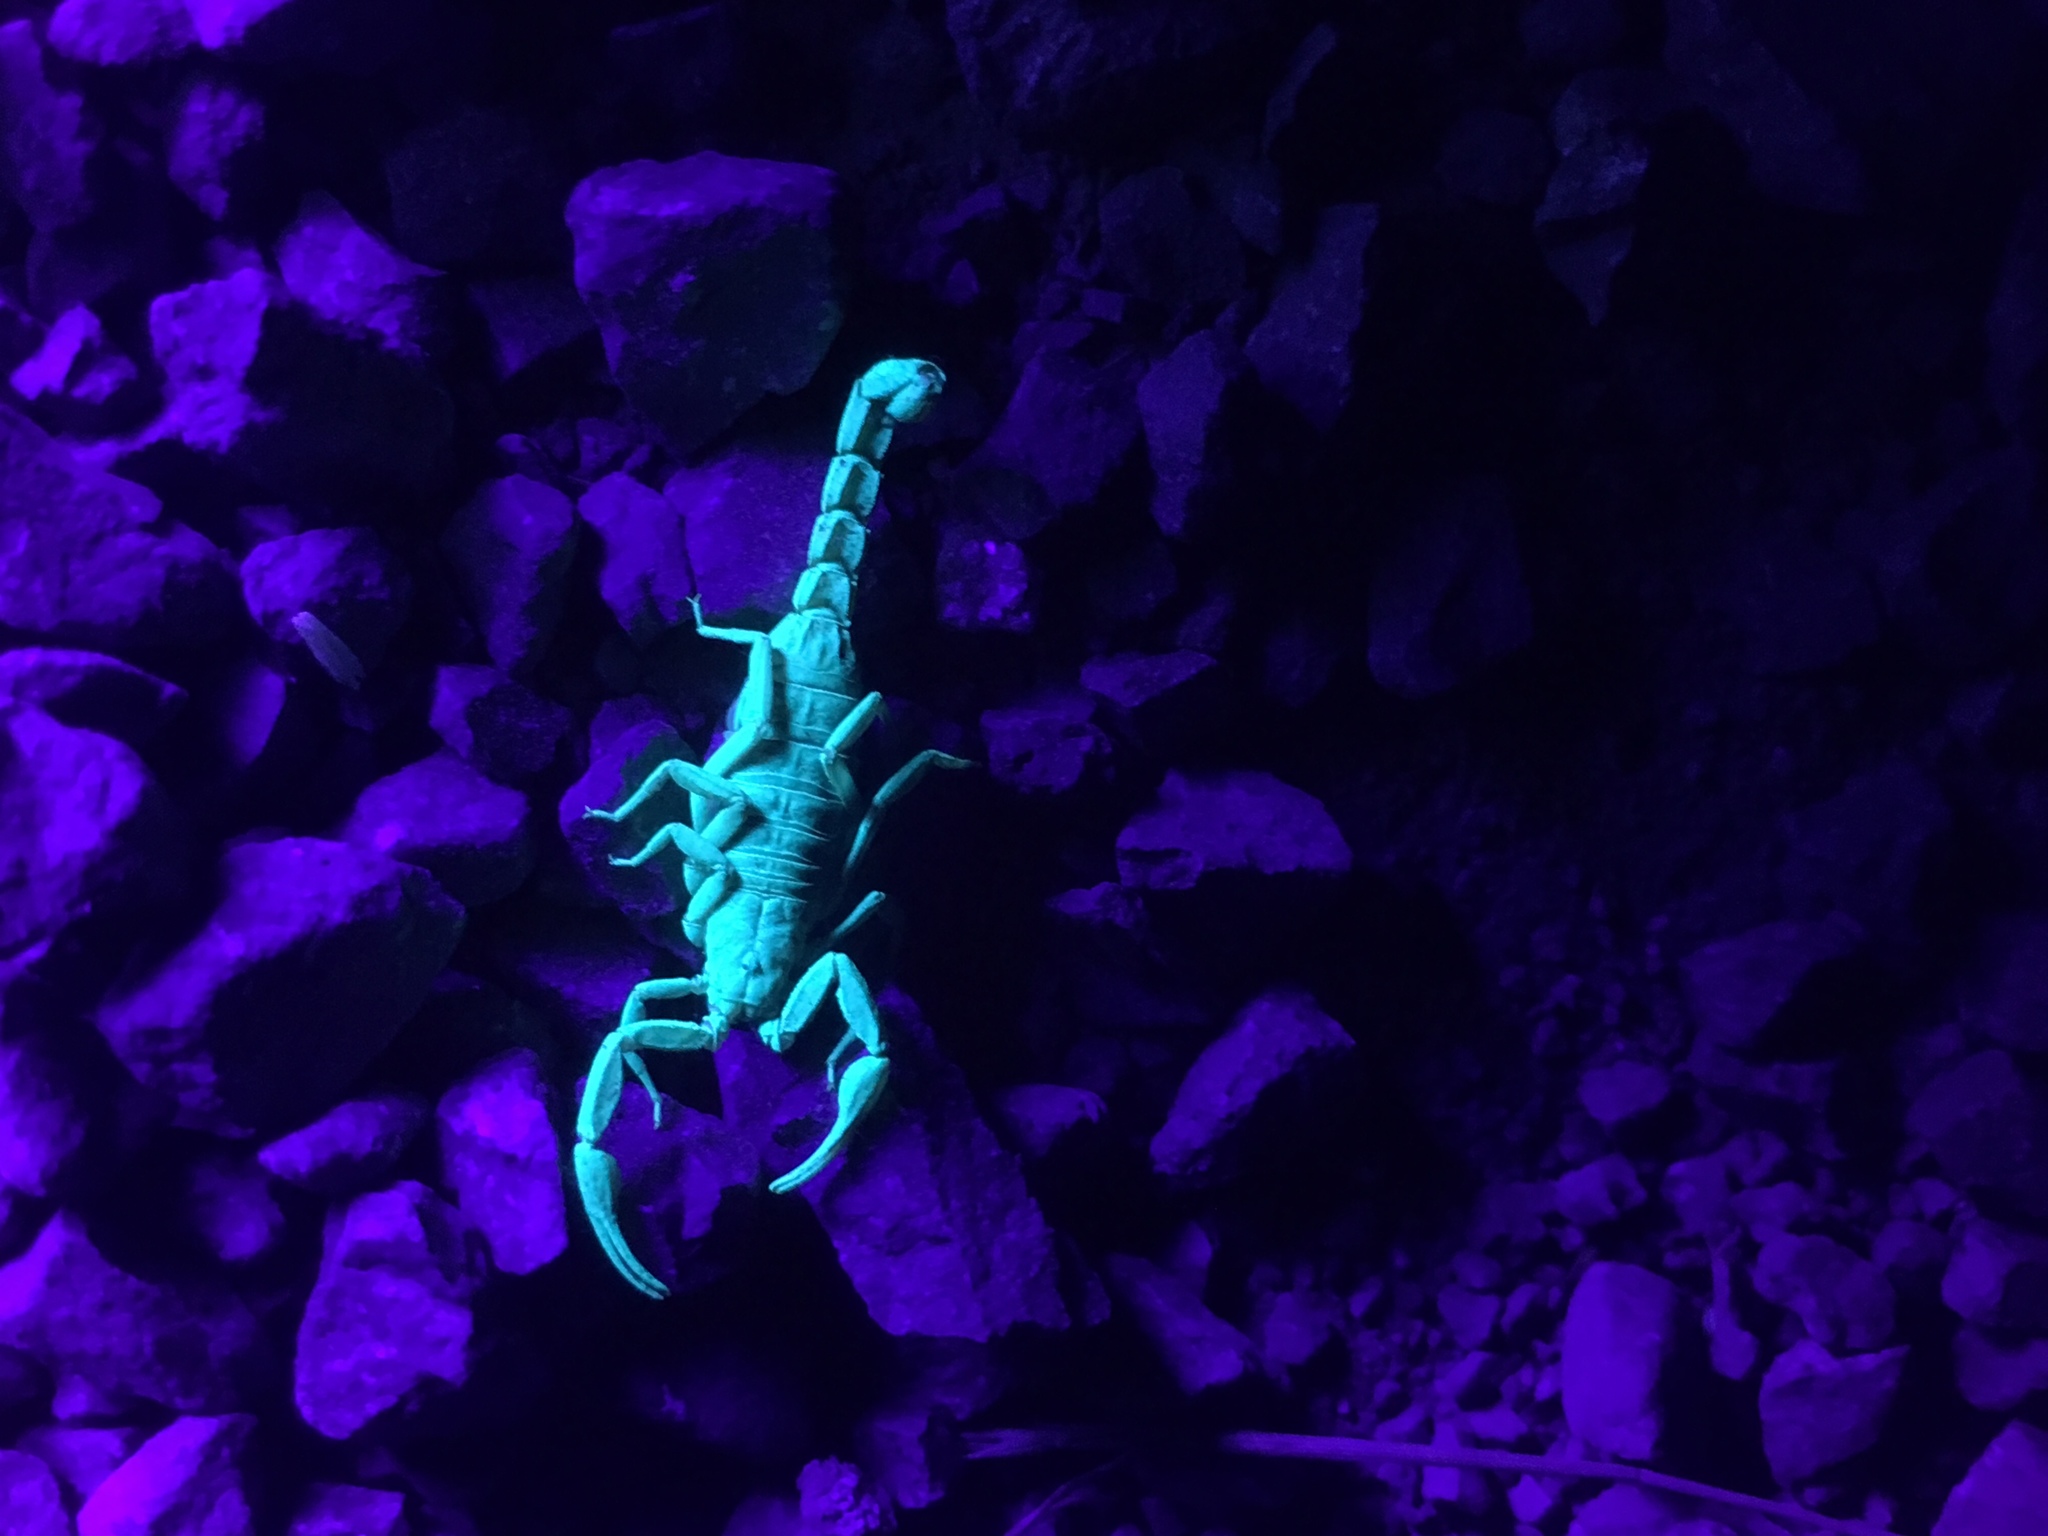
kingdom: Animalia
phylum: Arthropoda
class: Arachnida
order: Scorpiones
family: Vaejovidae
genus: Serradigitus
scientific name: Serradigitus gertschi
